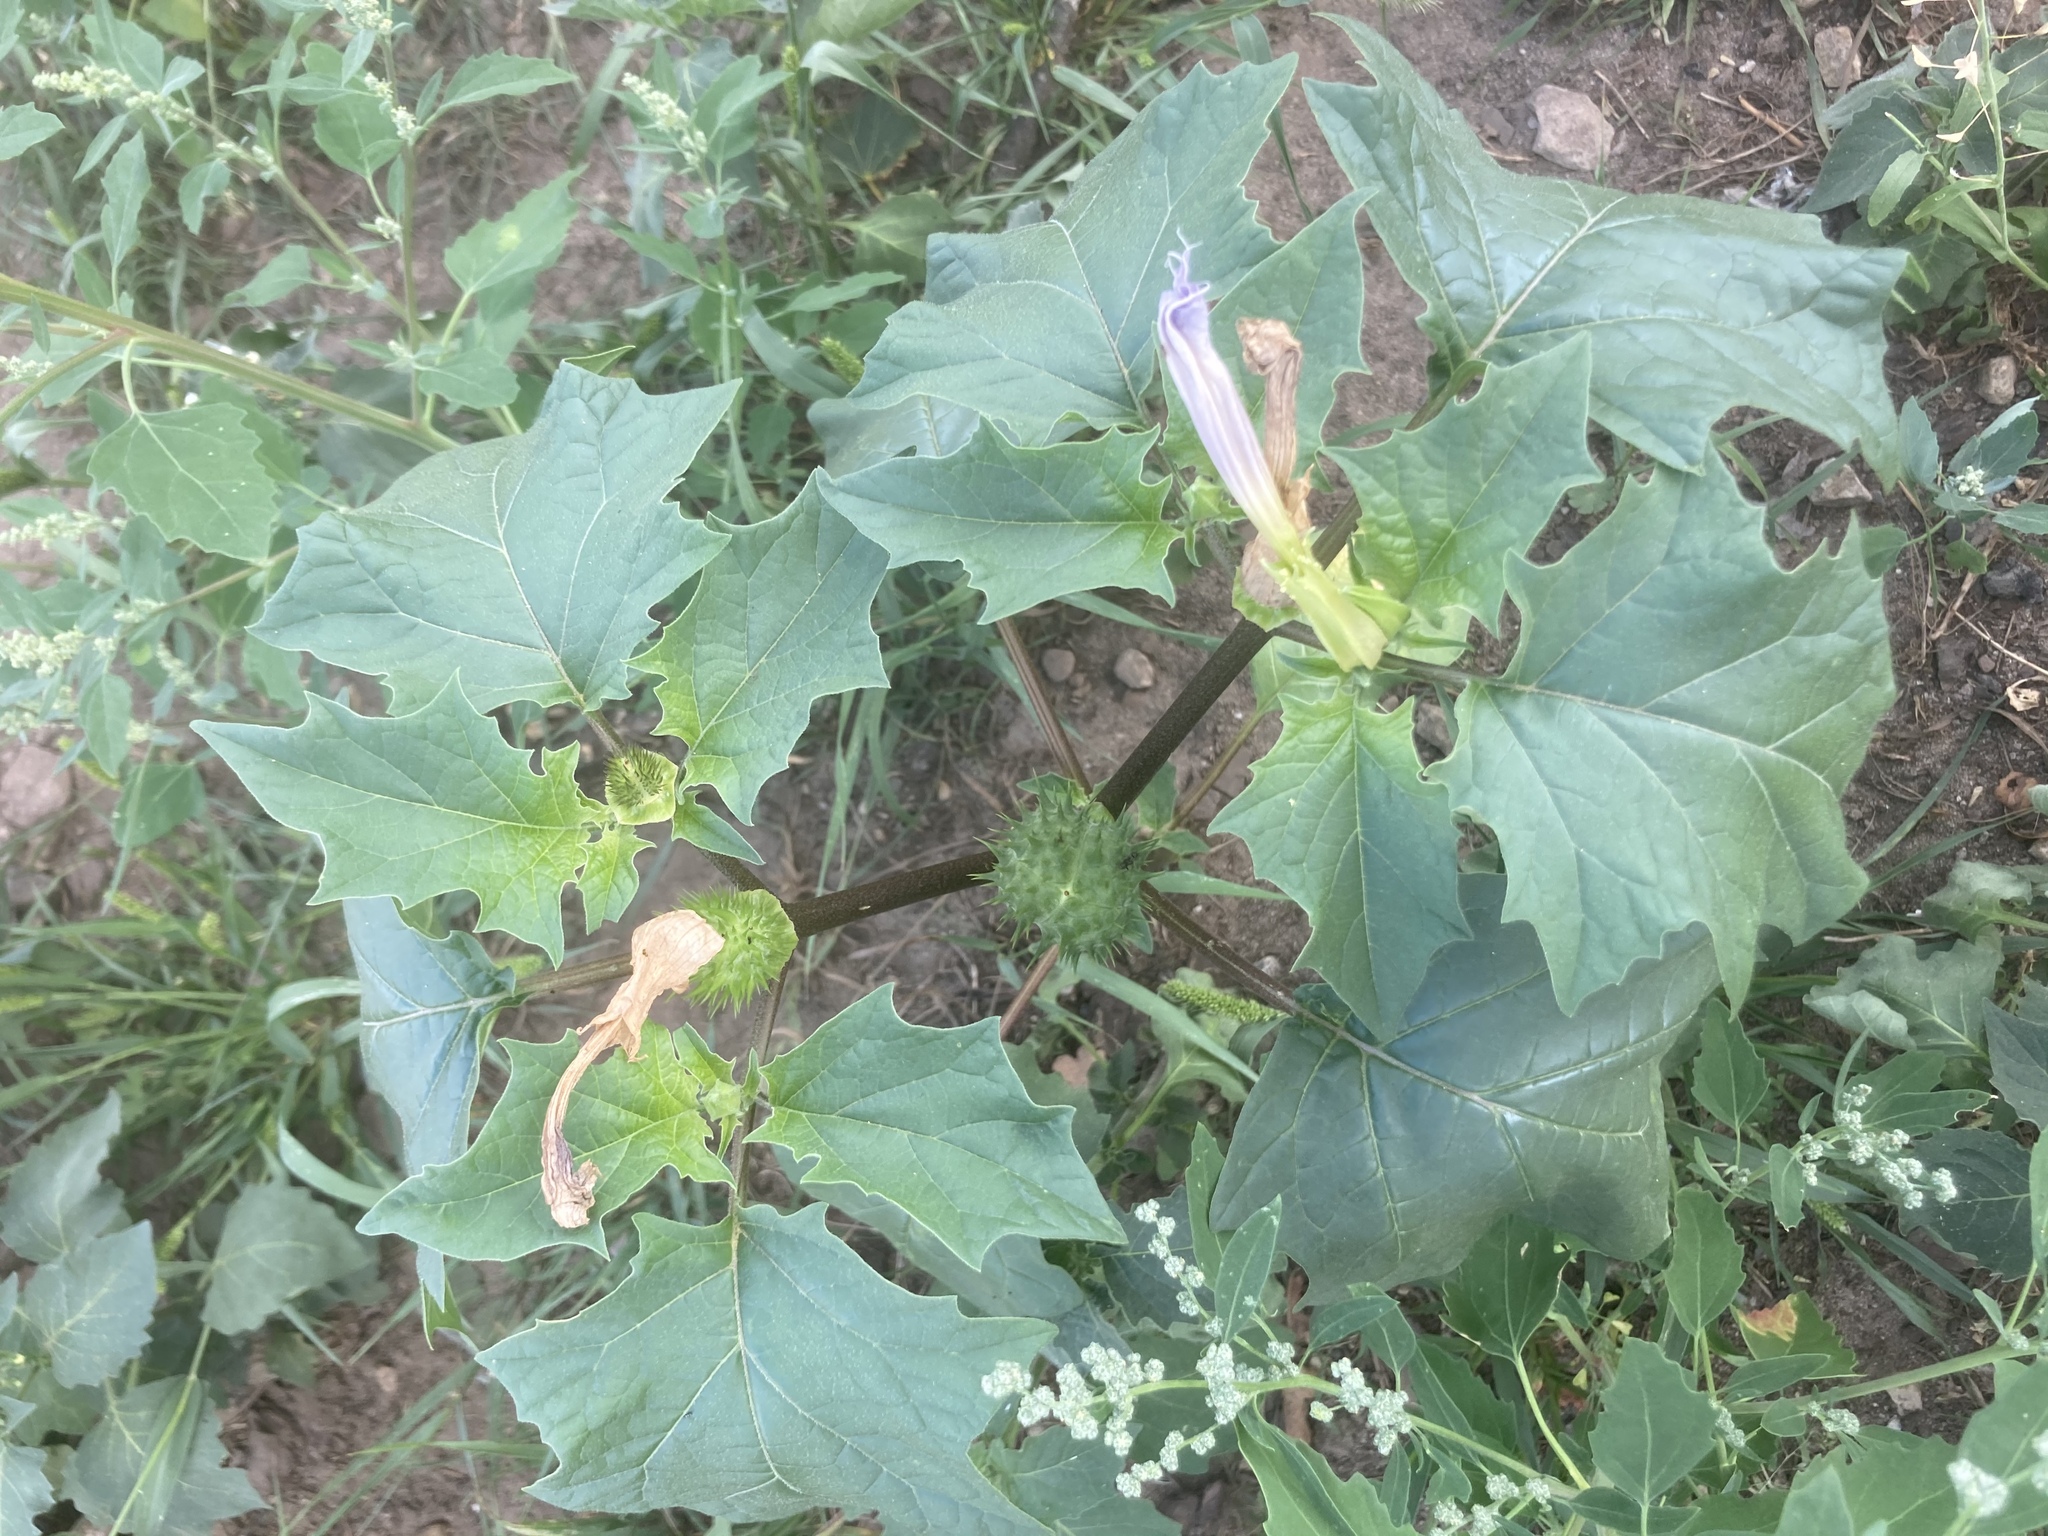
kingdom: Plantae
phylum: Tracheophyta
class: Magnoliopsida
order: Solanales
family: Solanaceae
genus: Datura
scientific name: Datura stramonium
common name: Thorn-apple
